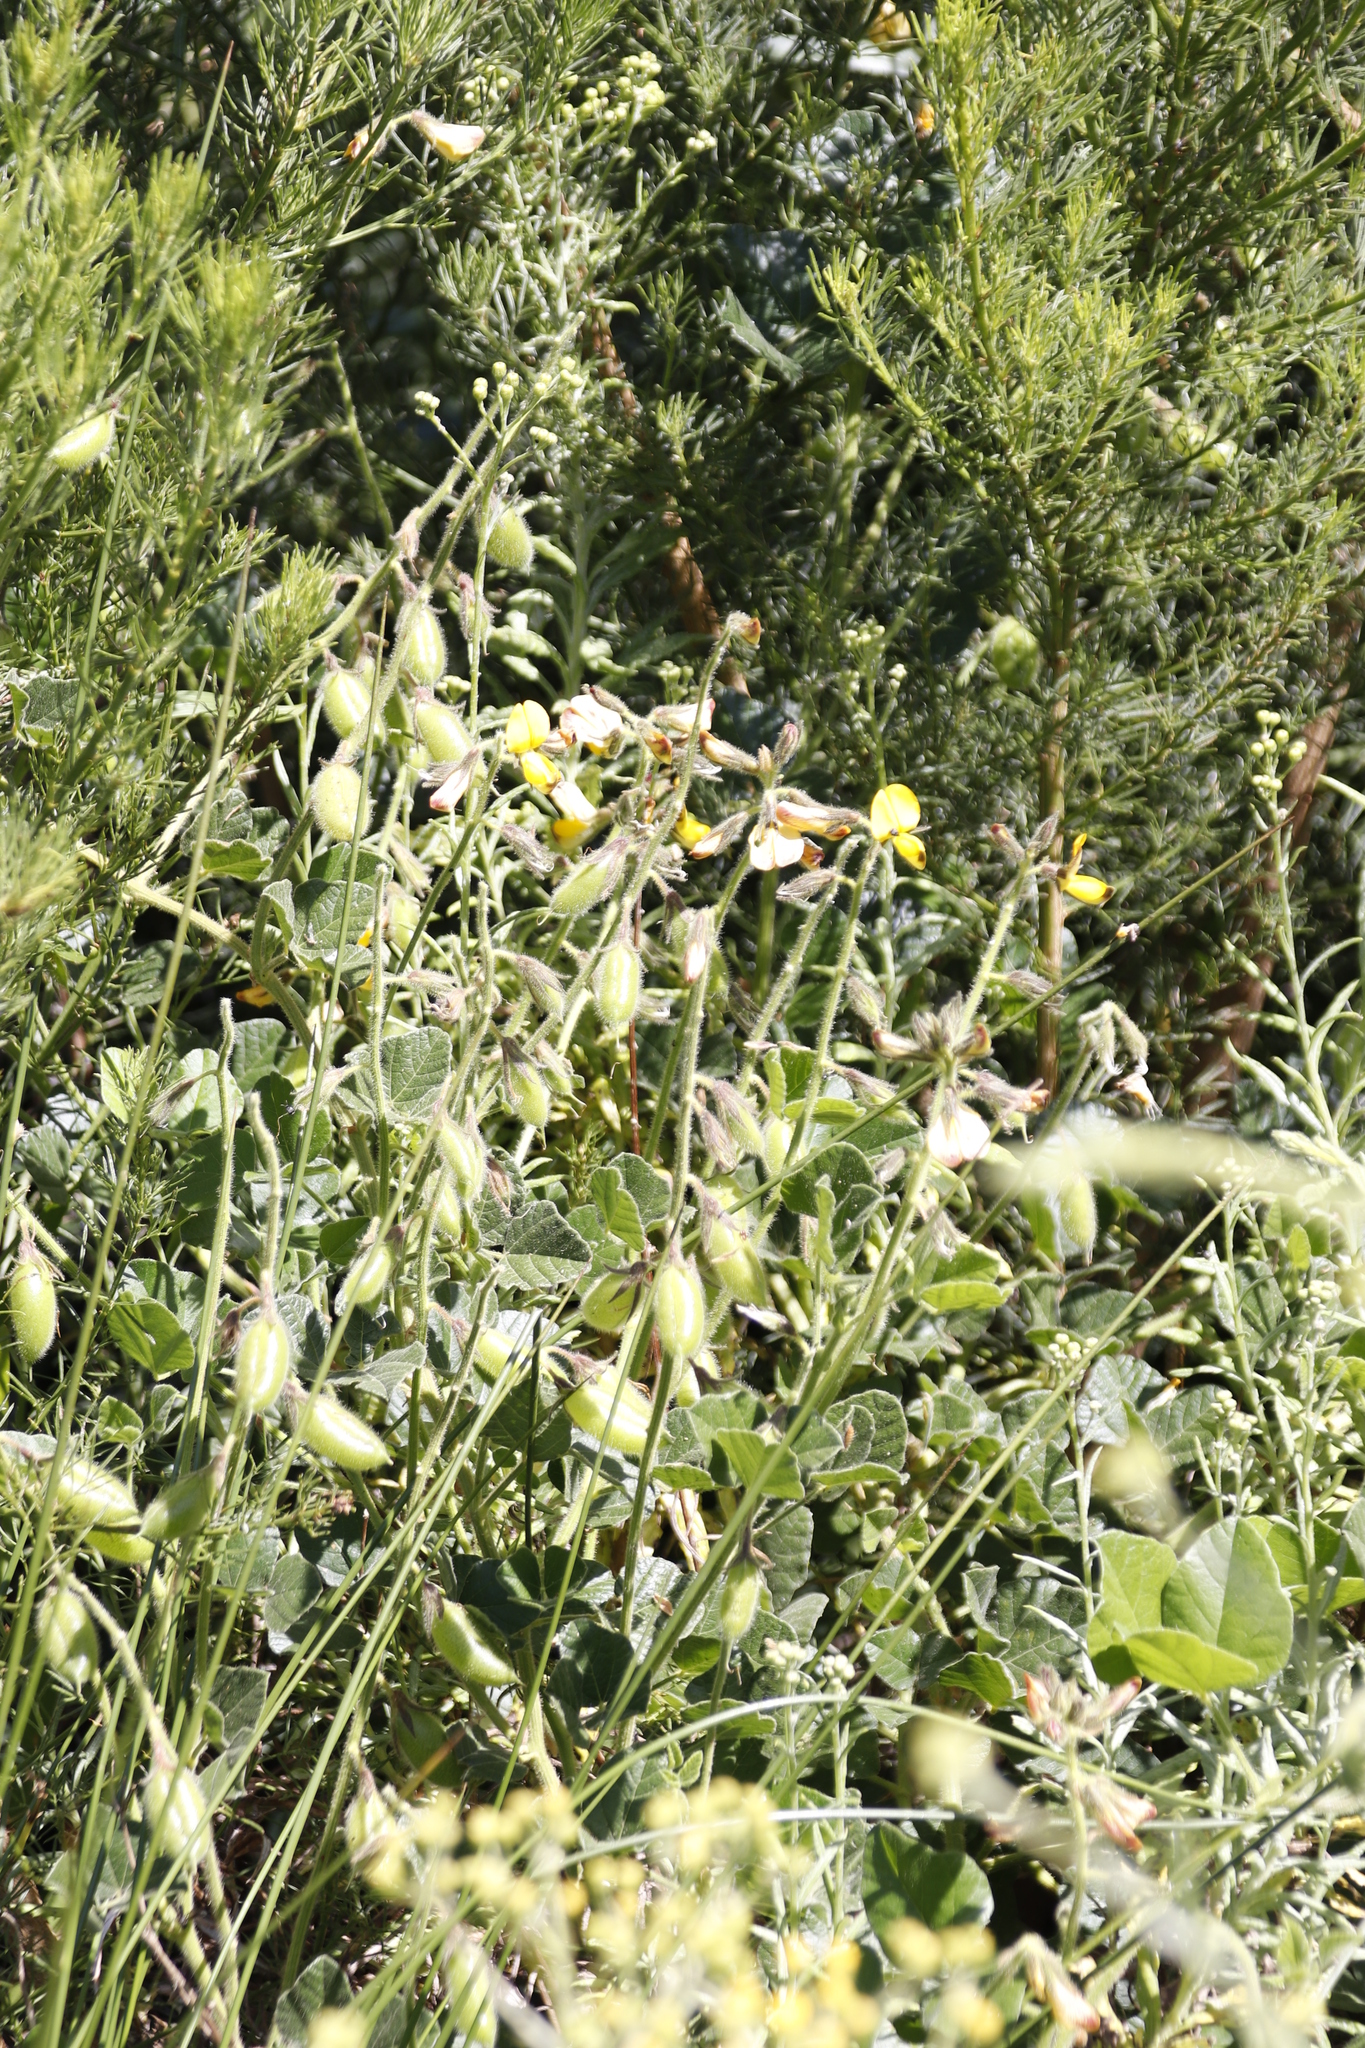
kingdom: Plantae
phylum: Tracheophyta
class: Magnoliopsida
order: Fabales
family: Fabaceae
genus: Bolusafra
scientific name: Bolusafra bituminosa
